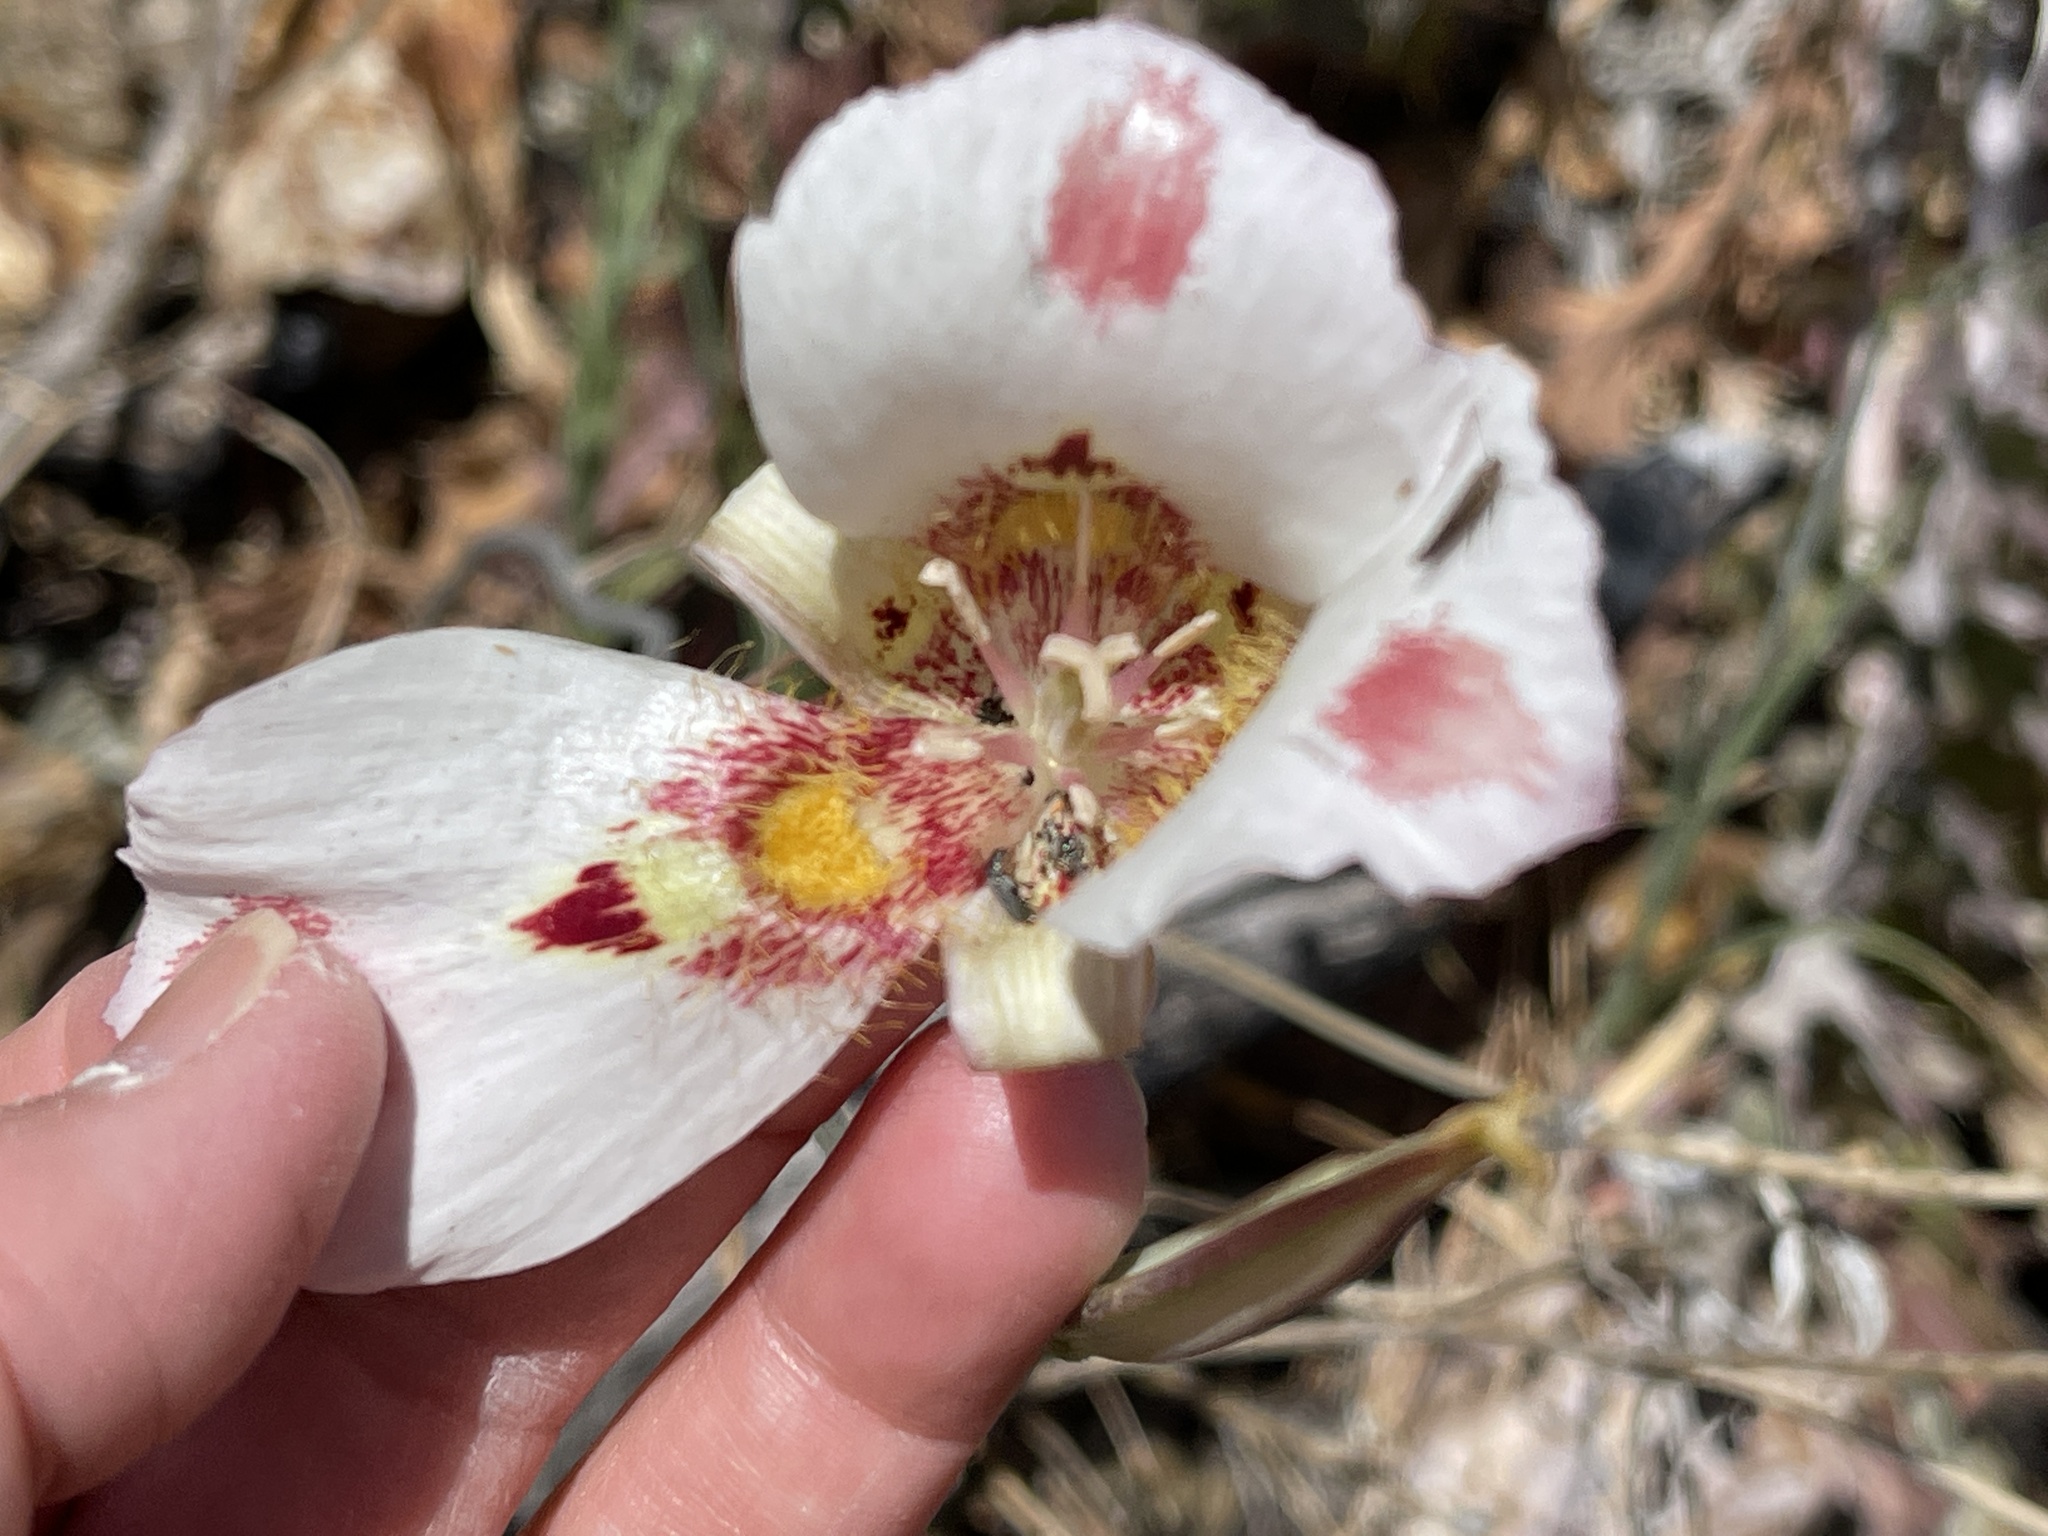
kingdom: Plantae
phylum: Tracheophyta
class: Liliopsida
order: Liliales
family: Liliaceae
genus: Calochortus
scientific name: Calochortus venustus
